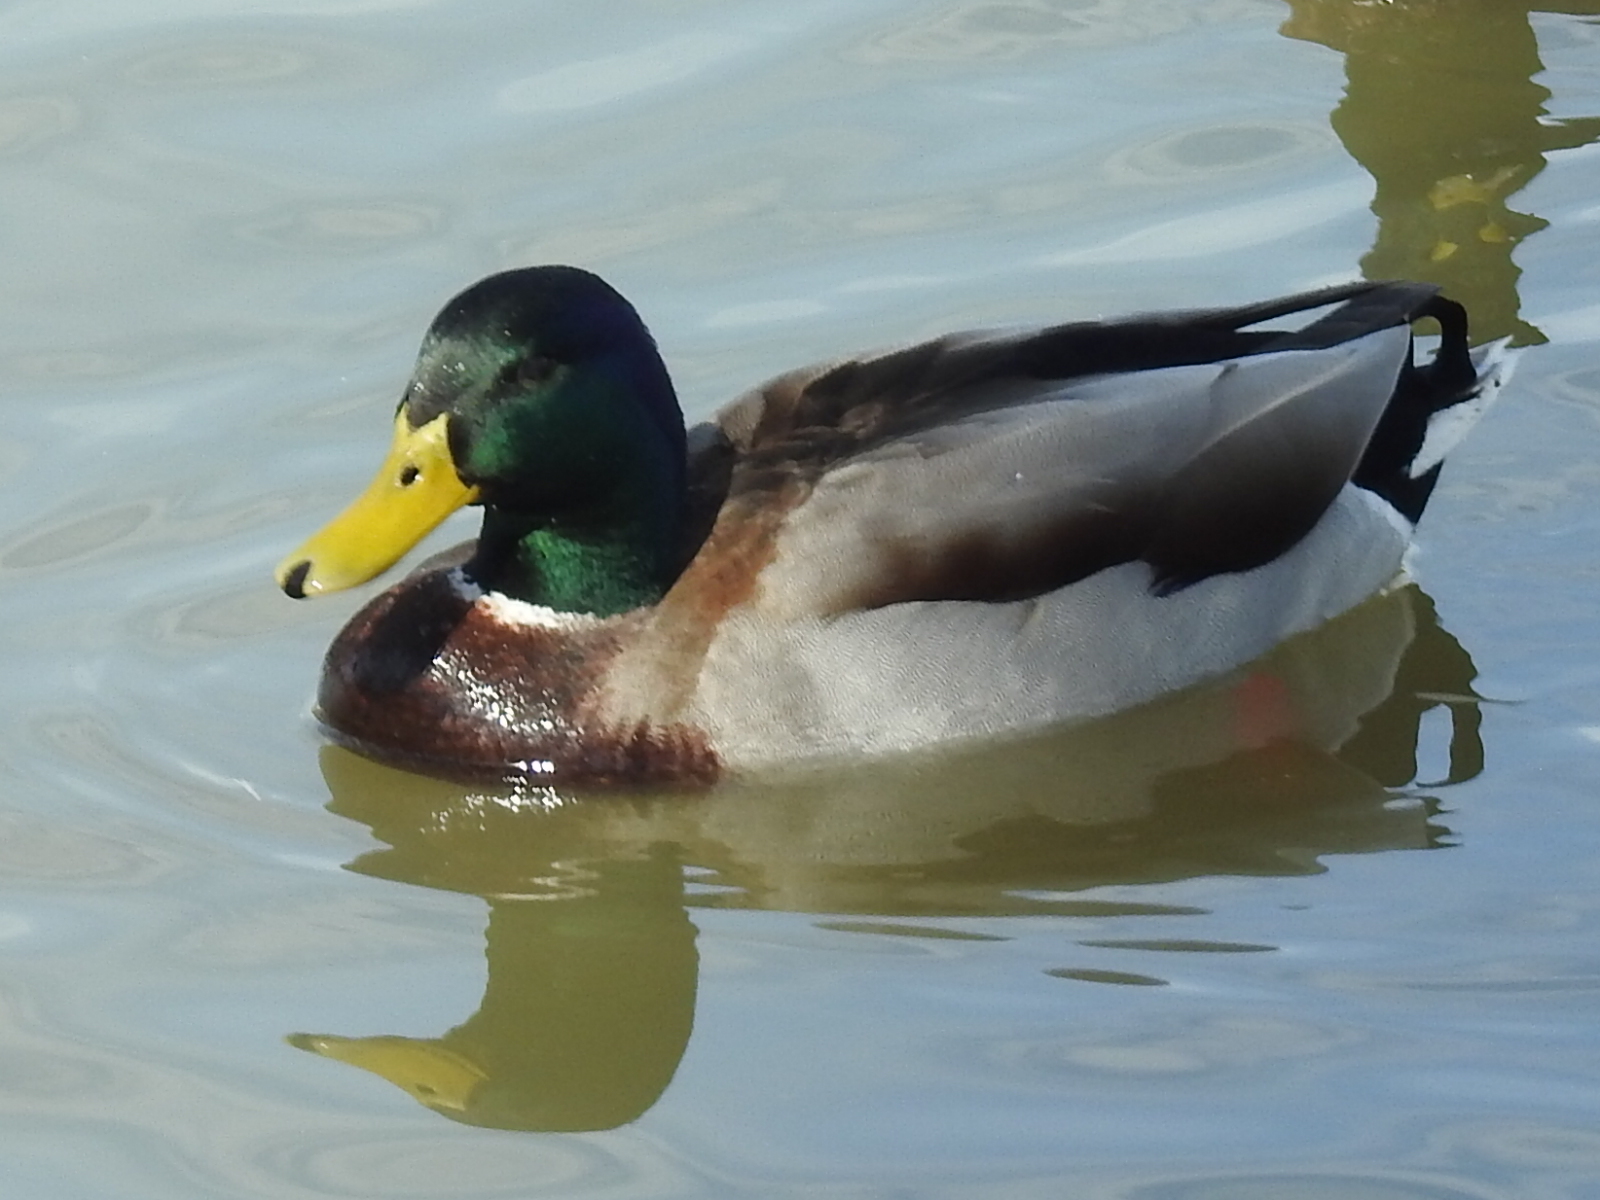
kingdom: Animalia
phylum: Chordata
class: Aves
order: Anseriformes
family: Anatidae
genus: Anas
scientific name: Anas platyrhynchos
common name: Mallard
